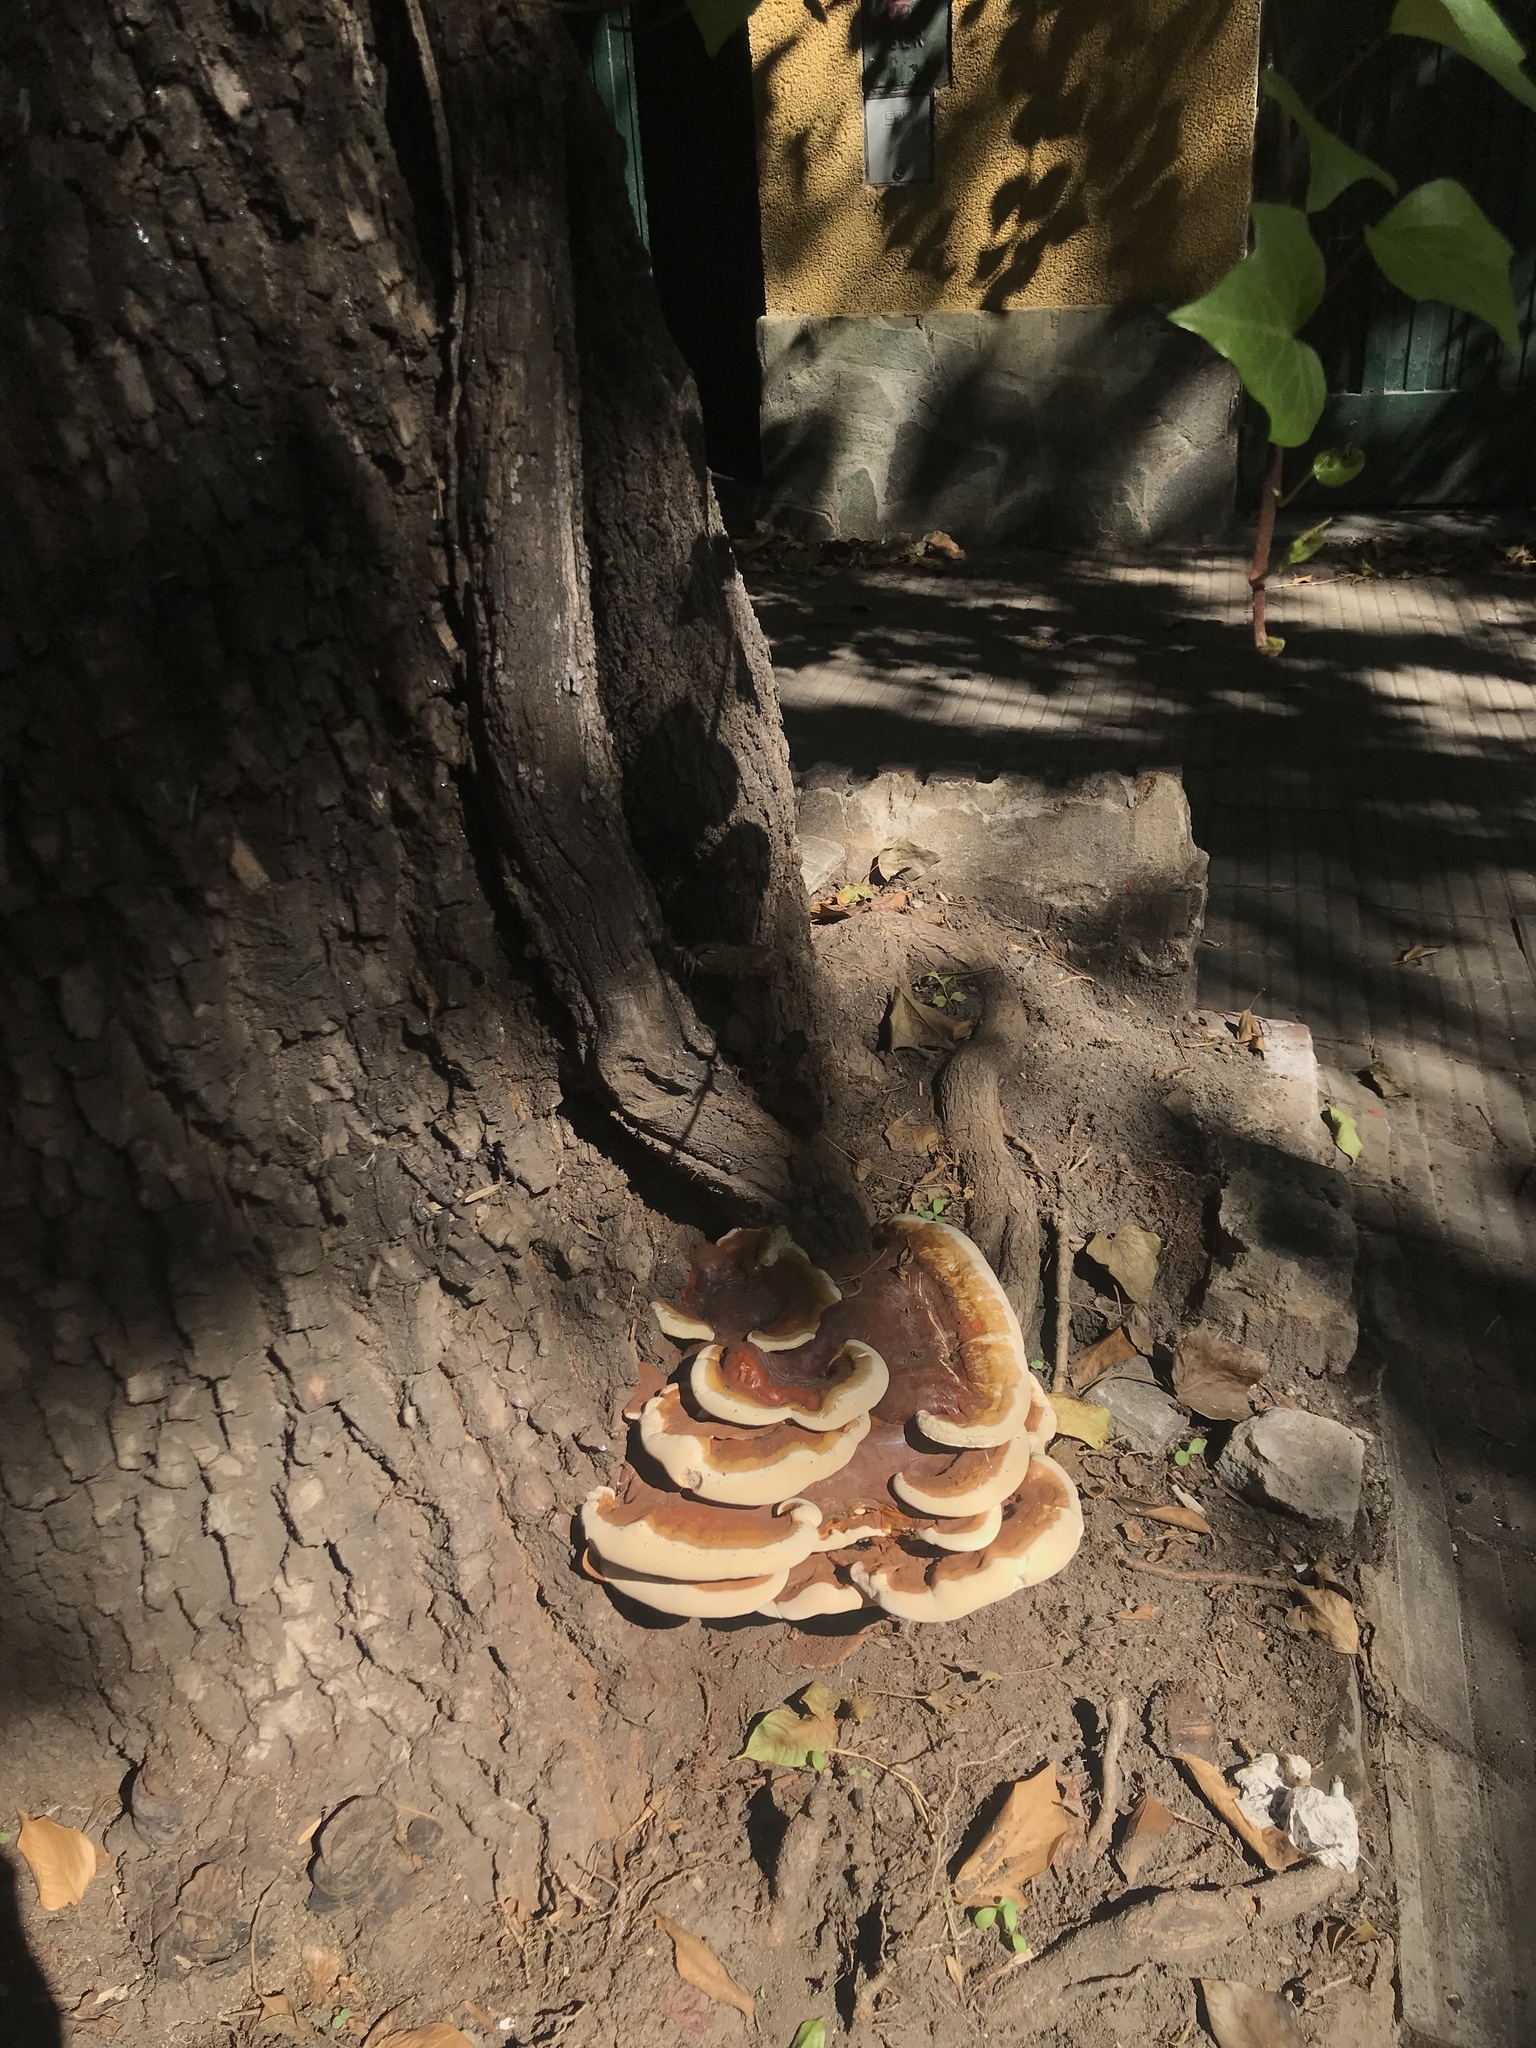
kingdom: Fungi
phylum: Basidiomycota
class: Agaricomycetes
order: Polyporales
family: Polyporaceae
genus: Ganoderma
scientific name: Ganoderma resinaceum
